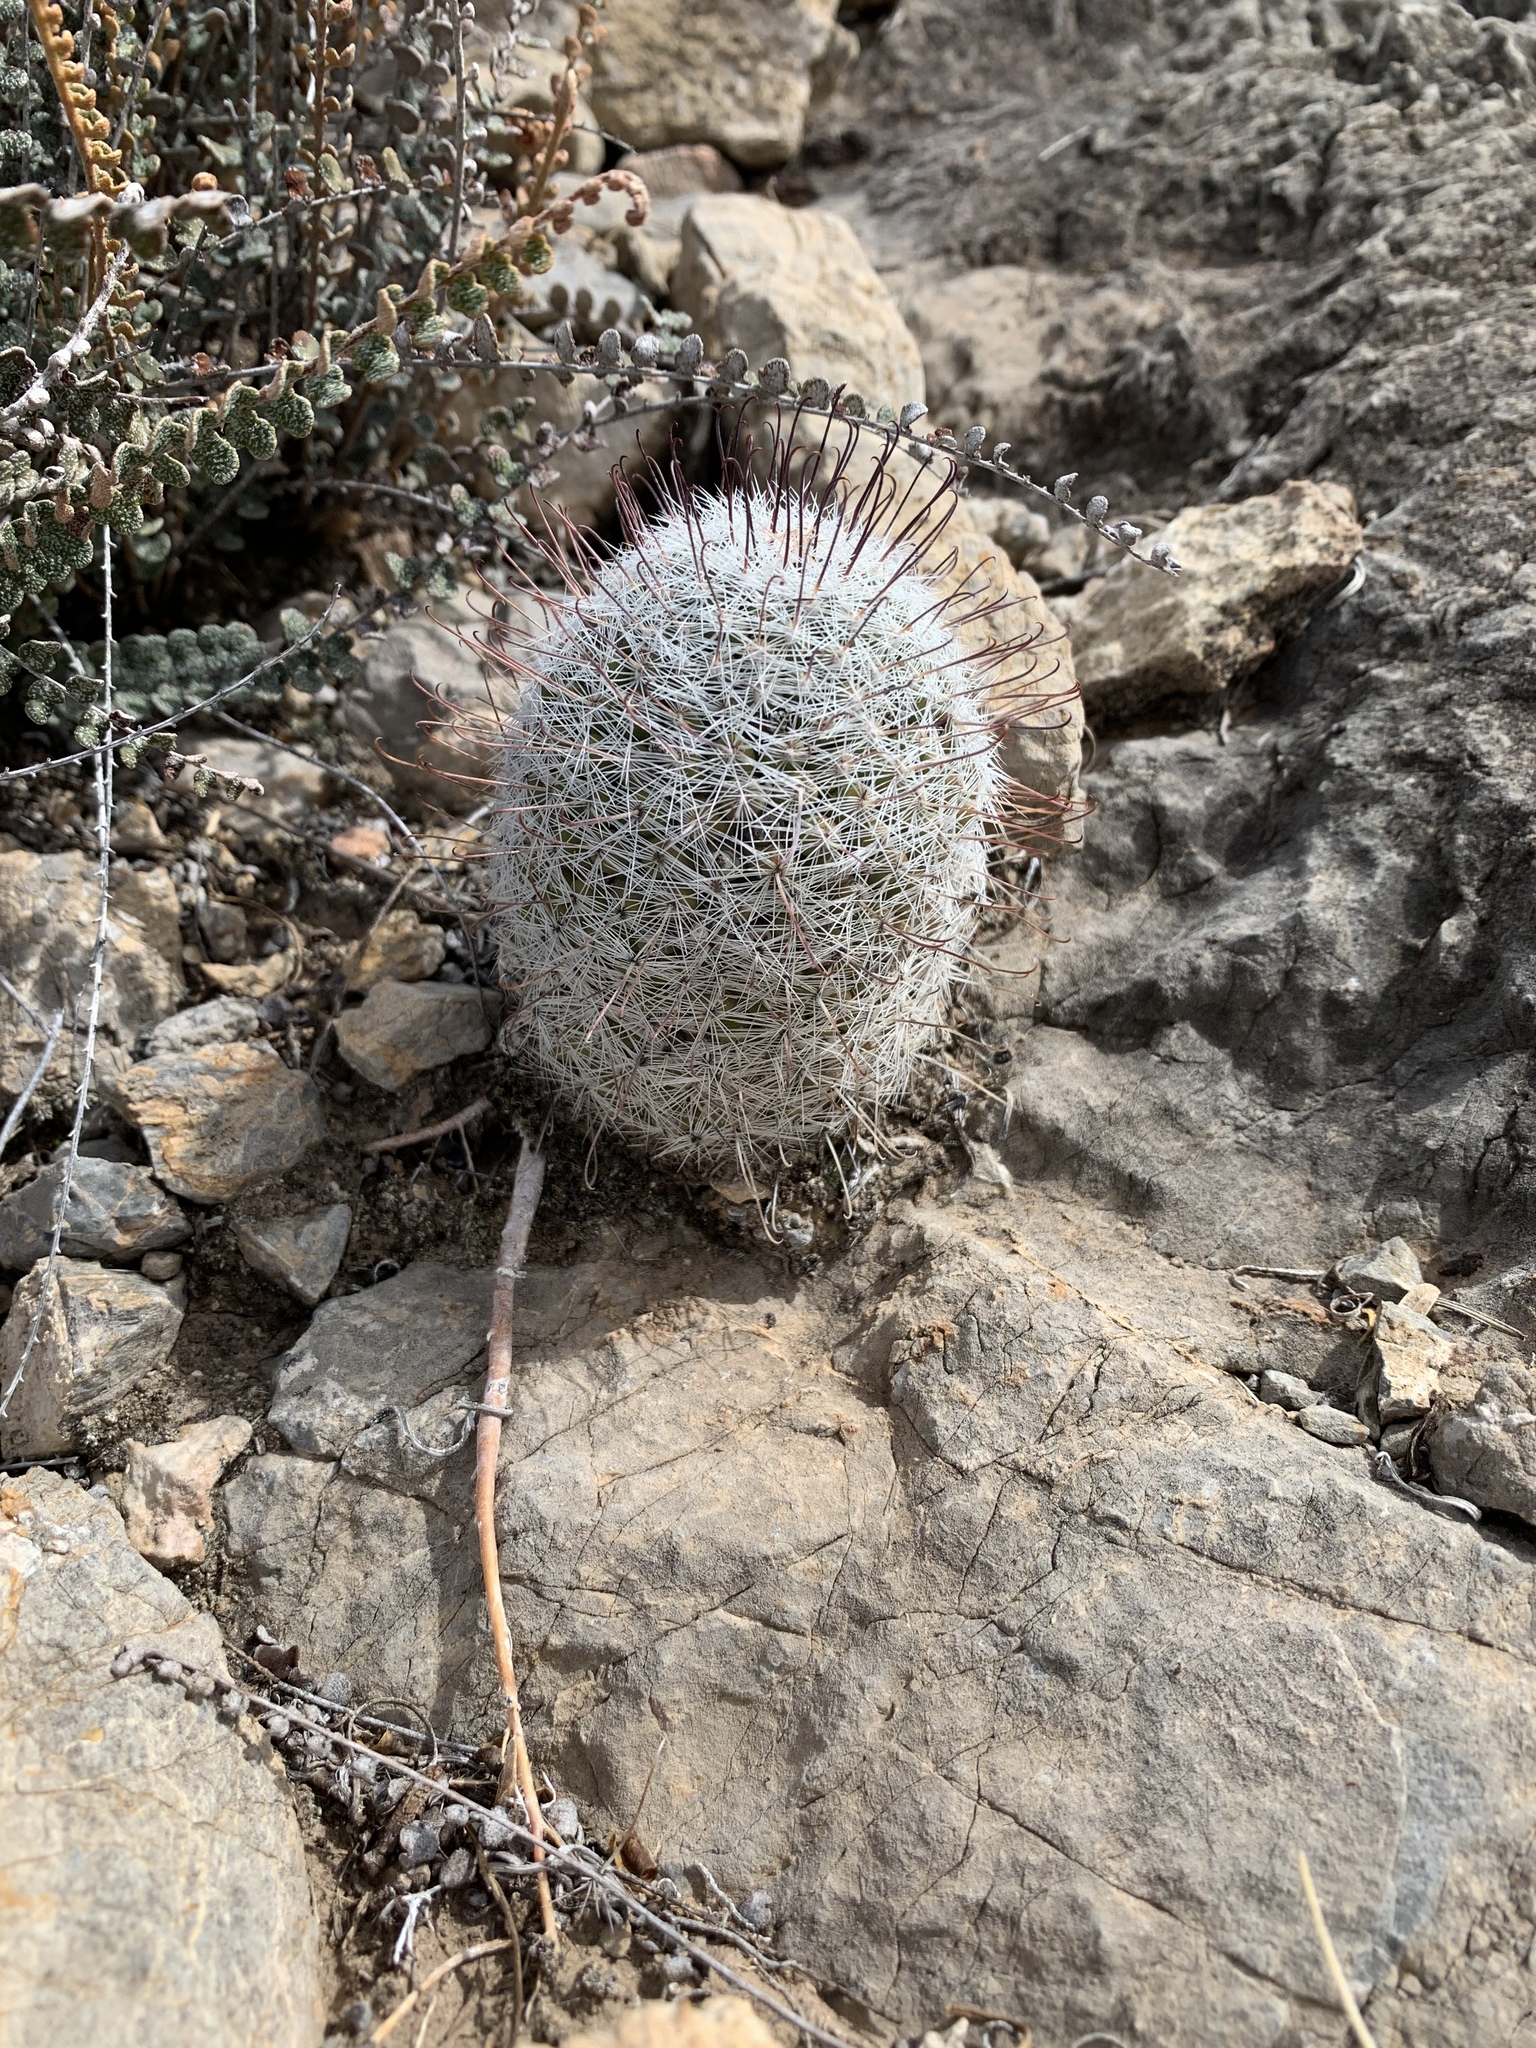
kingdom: Plantae
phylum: Tracheophyta
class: Magnoliopsida
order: Caryophyllales
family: Cactaceae
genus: Cochemiea
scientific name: Cochemiea grahamii
